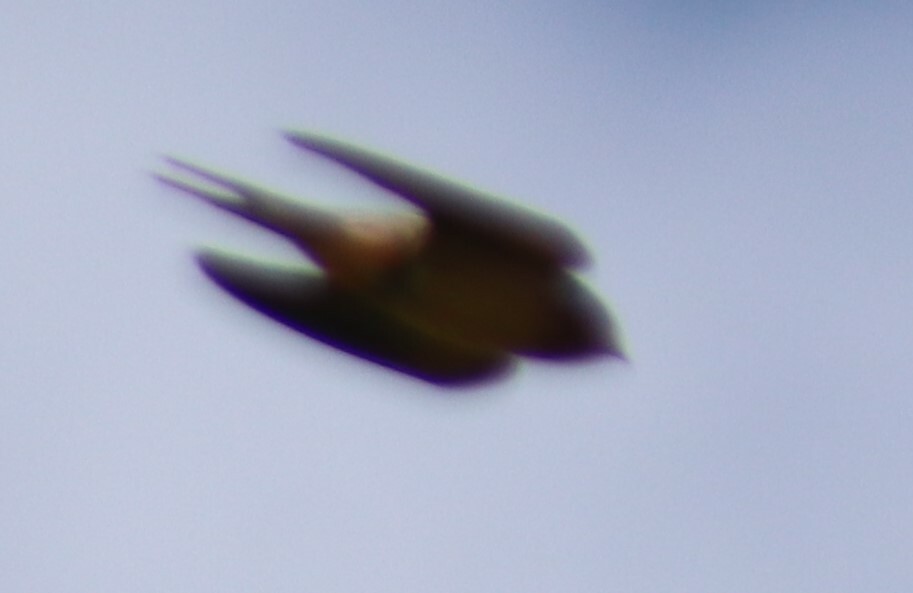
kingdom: Animalia
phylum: Chordata
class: Aves
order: Passeriformes
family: Hirundinidae
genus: Hirundo
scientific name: Hirundo rustica
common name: Barn swallow
